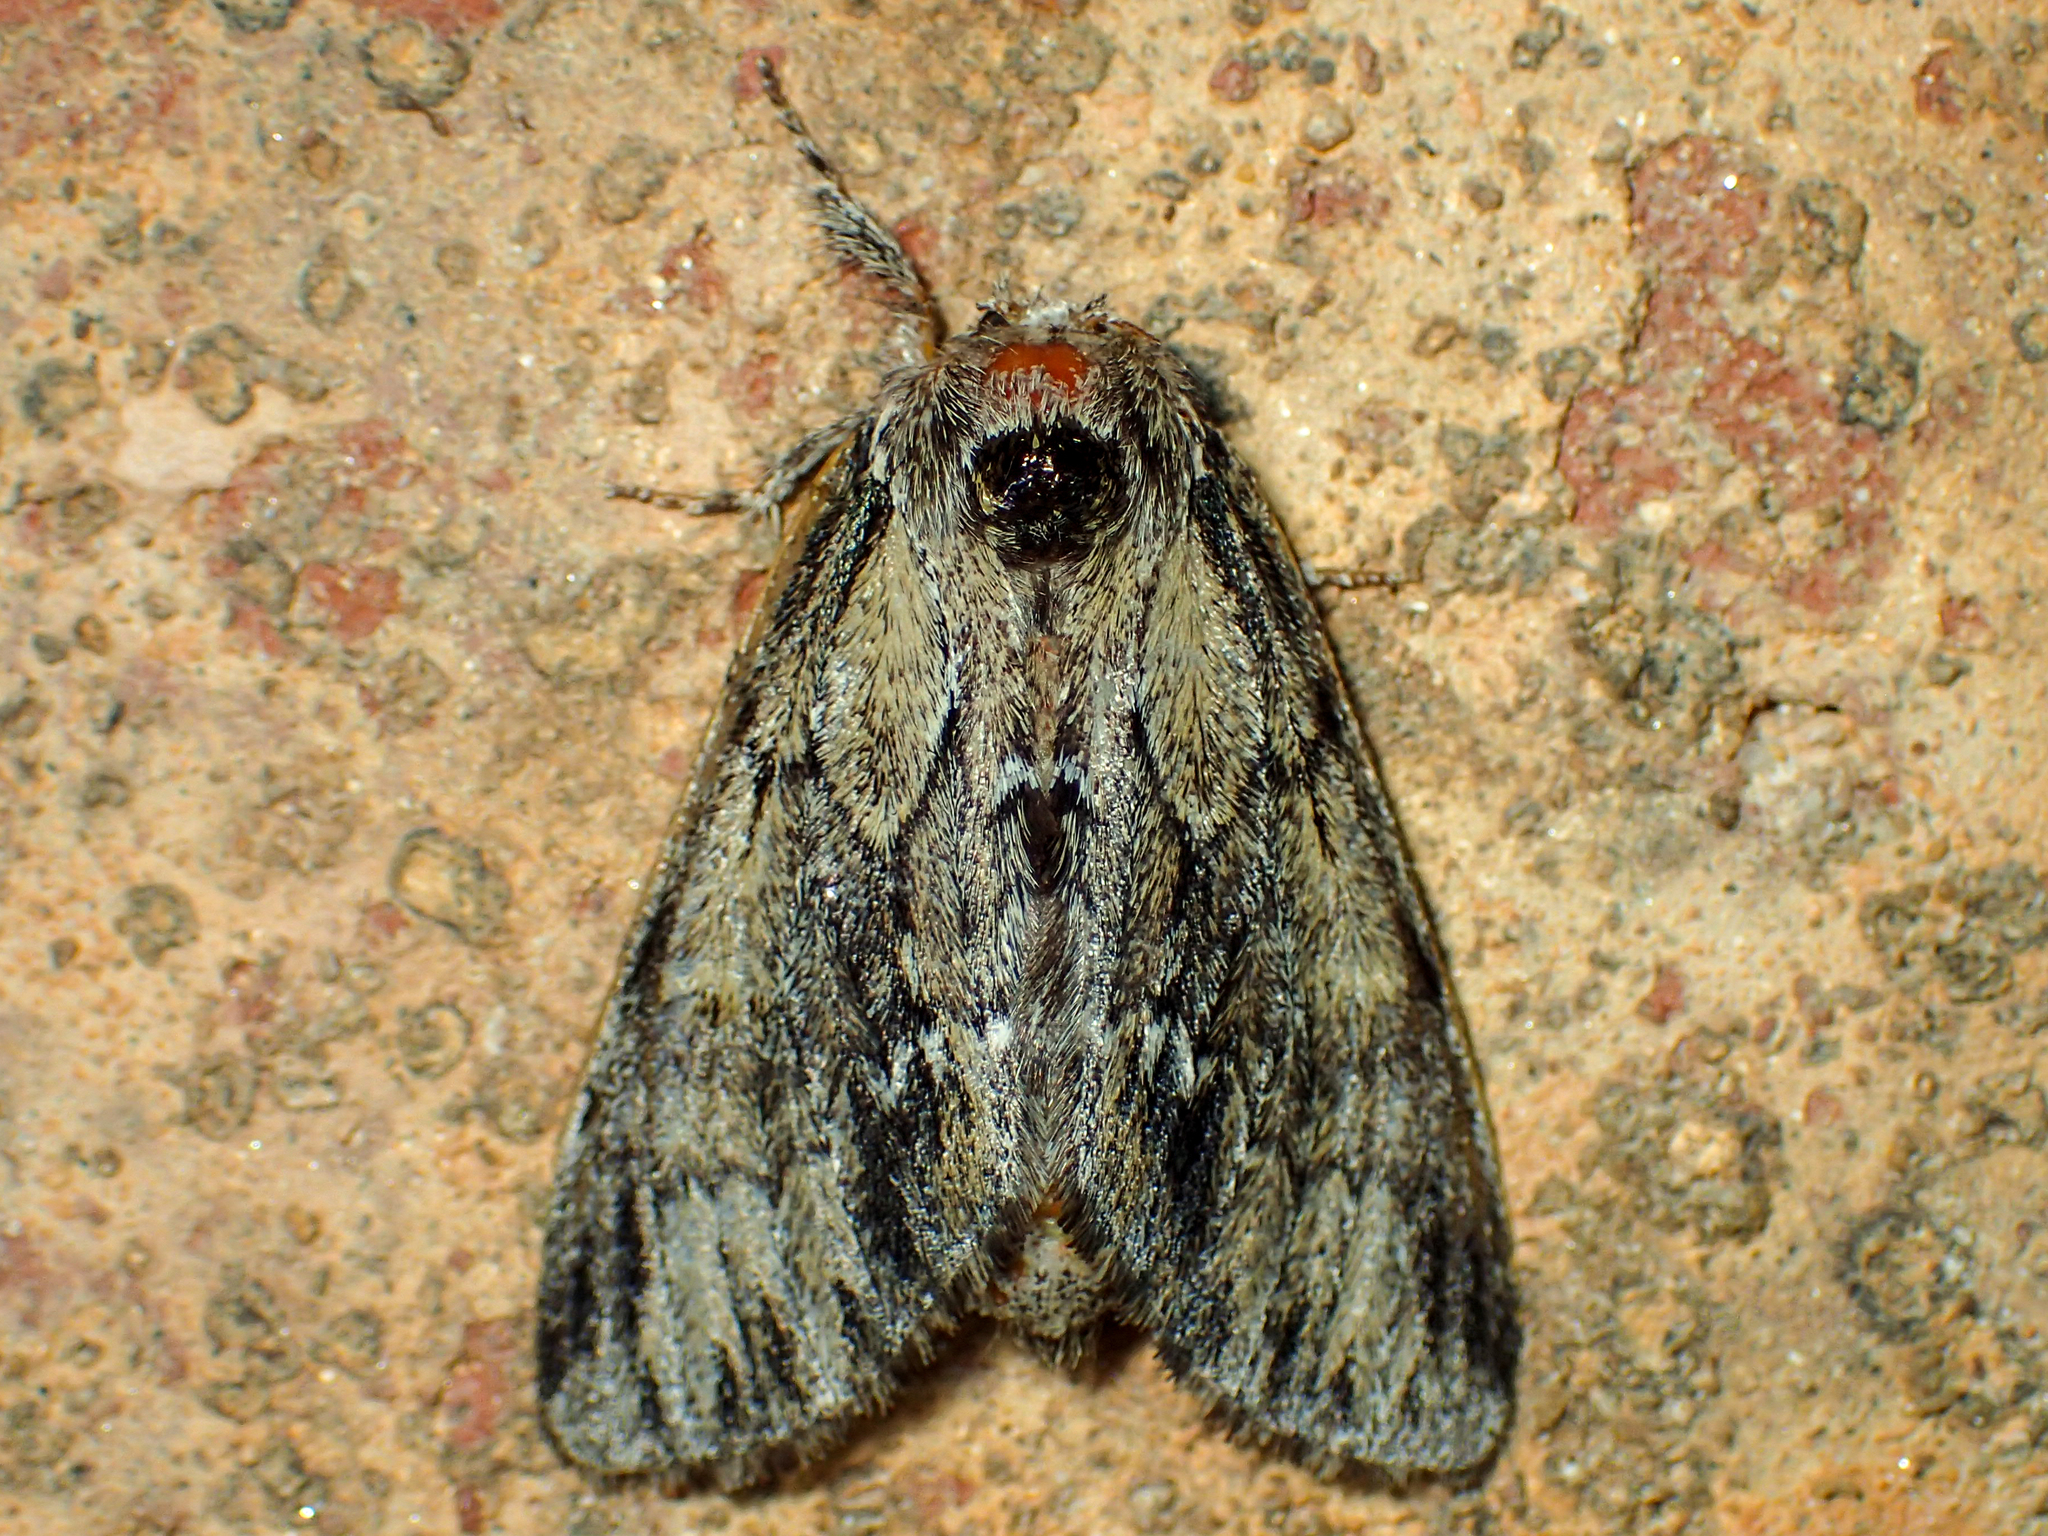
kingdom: Animalia
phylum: Arthropoda
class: Insecta
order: Lepidoptera
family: Notodontidae
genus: Paraeschra
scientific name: Paraeschra georgica
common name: Georgian prominent
